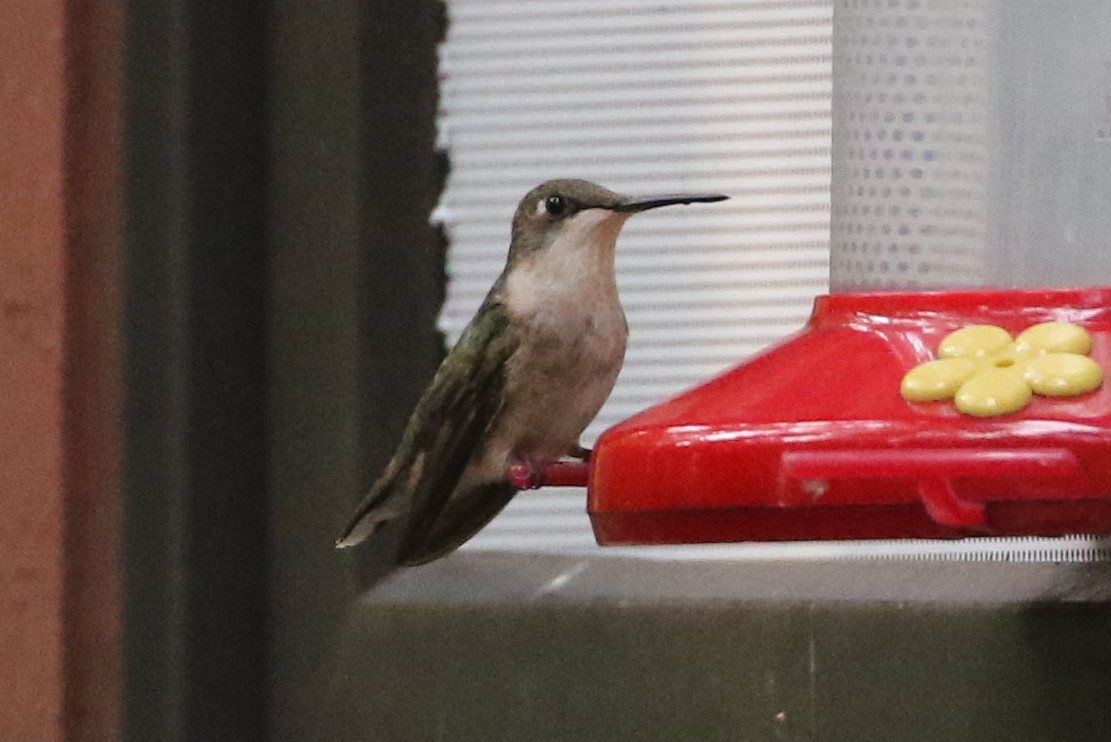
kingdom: Animalia
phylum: Chordata
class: Aves
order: Apodiformes
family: Trochilidae
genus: Archilochus
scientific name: Archilochus colubris
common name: Ruby-throated hummingbird
